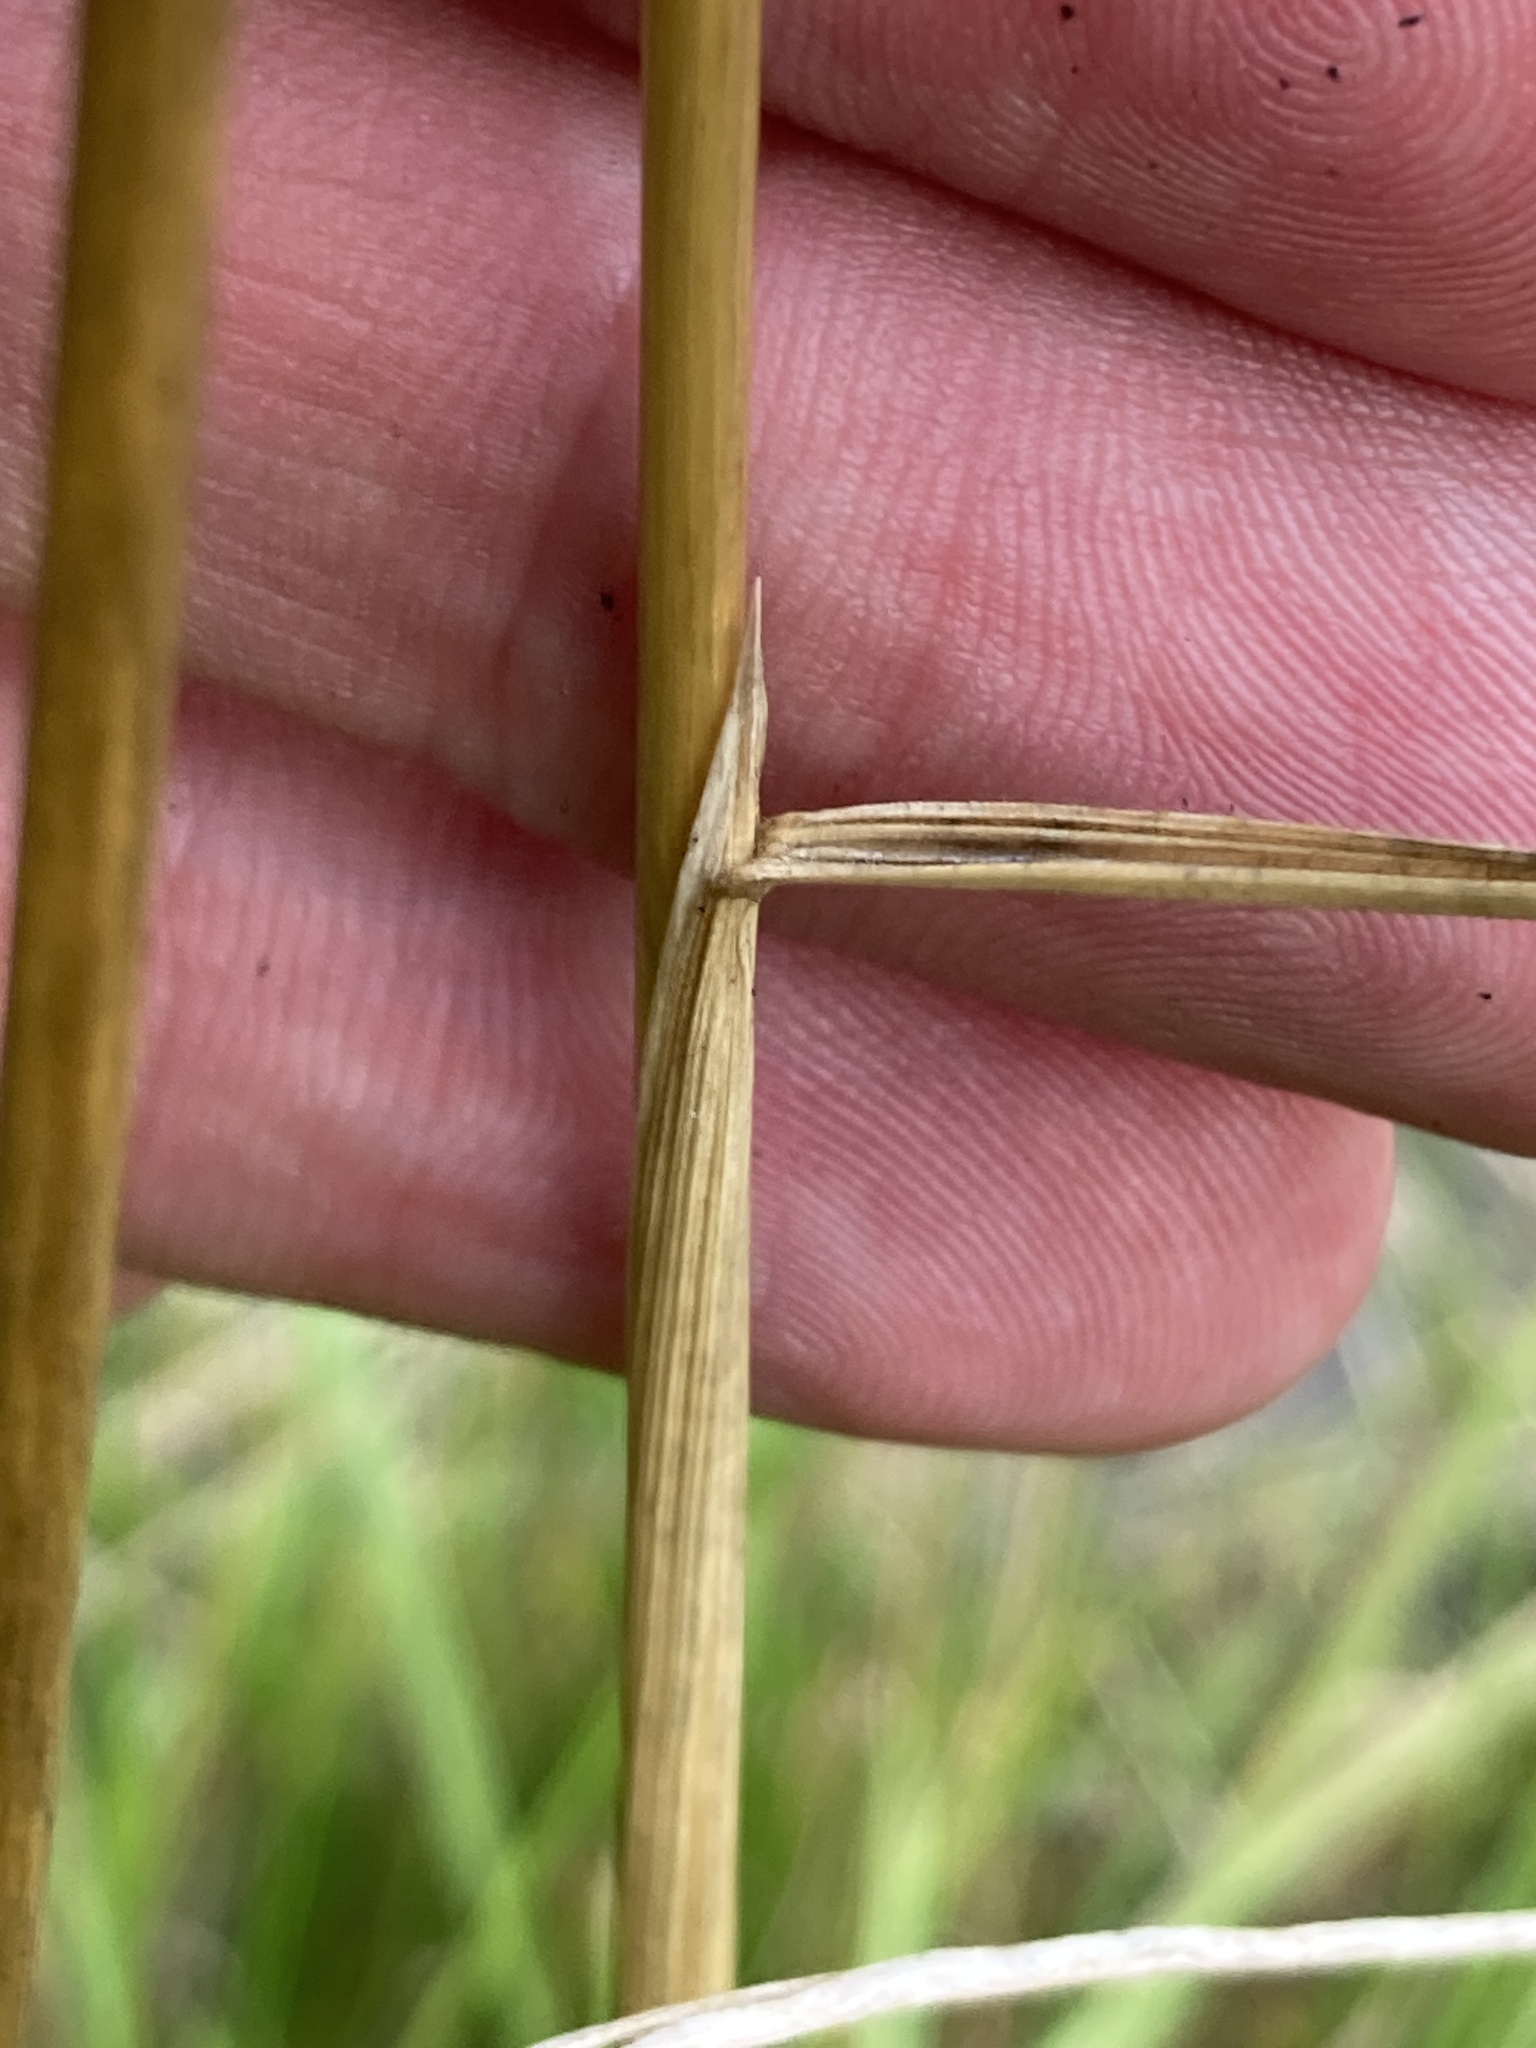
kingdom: Plantae
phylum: Tracheophyta
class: Liliopsida
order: Poales
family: Poaceae
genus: Deschampsia
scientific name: Deschampsia cespitosa
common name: Tufted hair-grass
